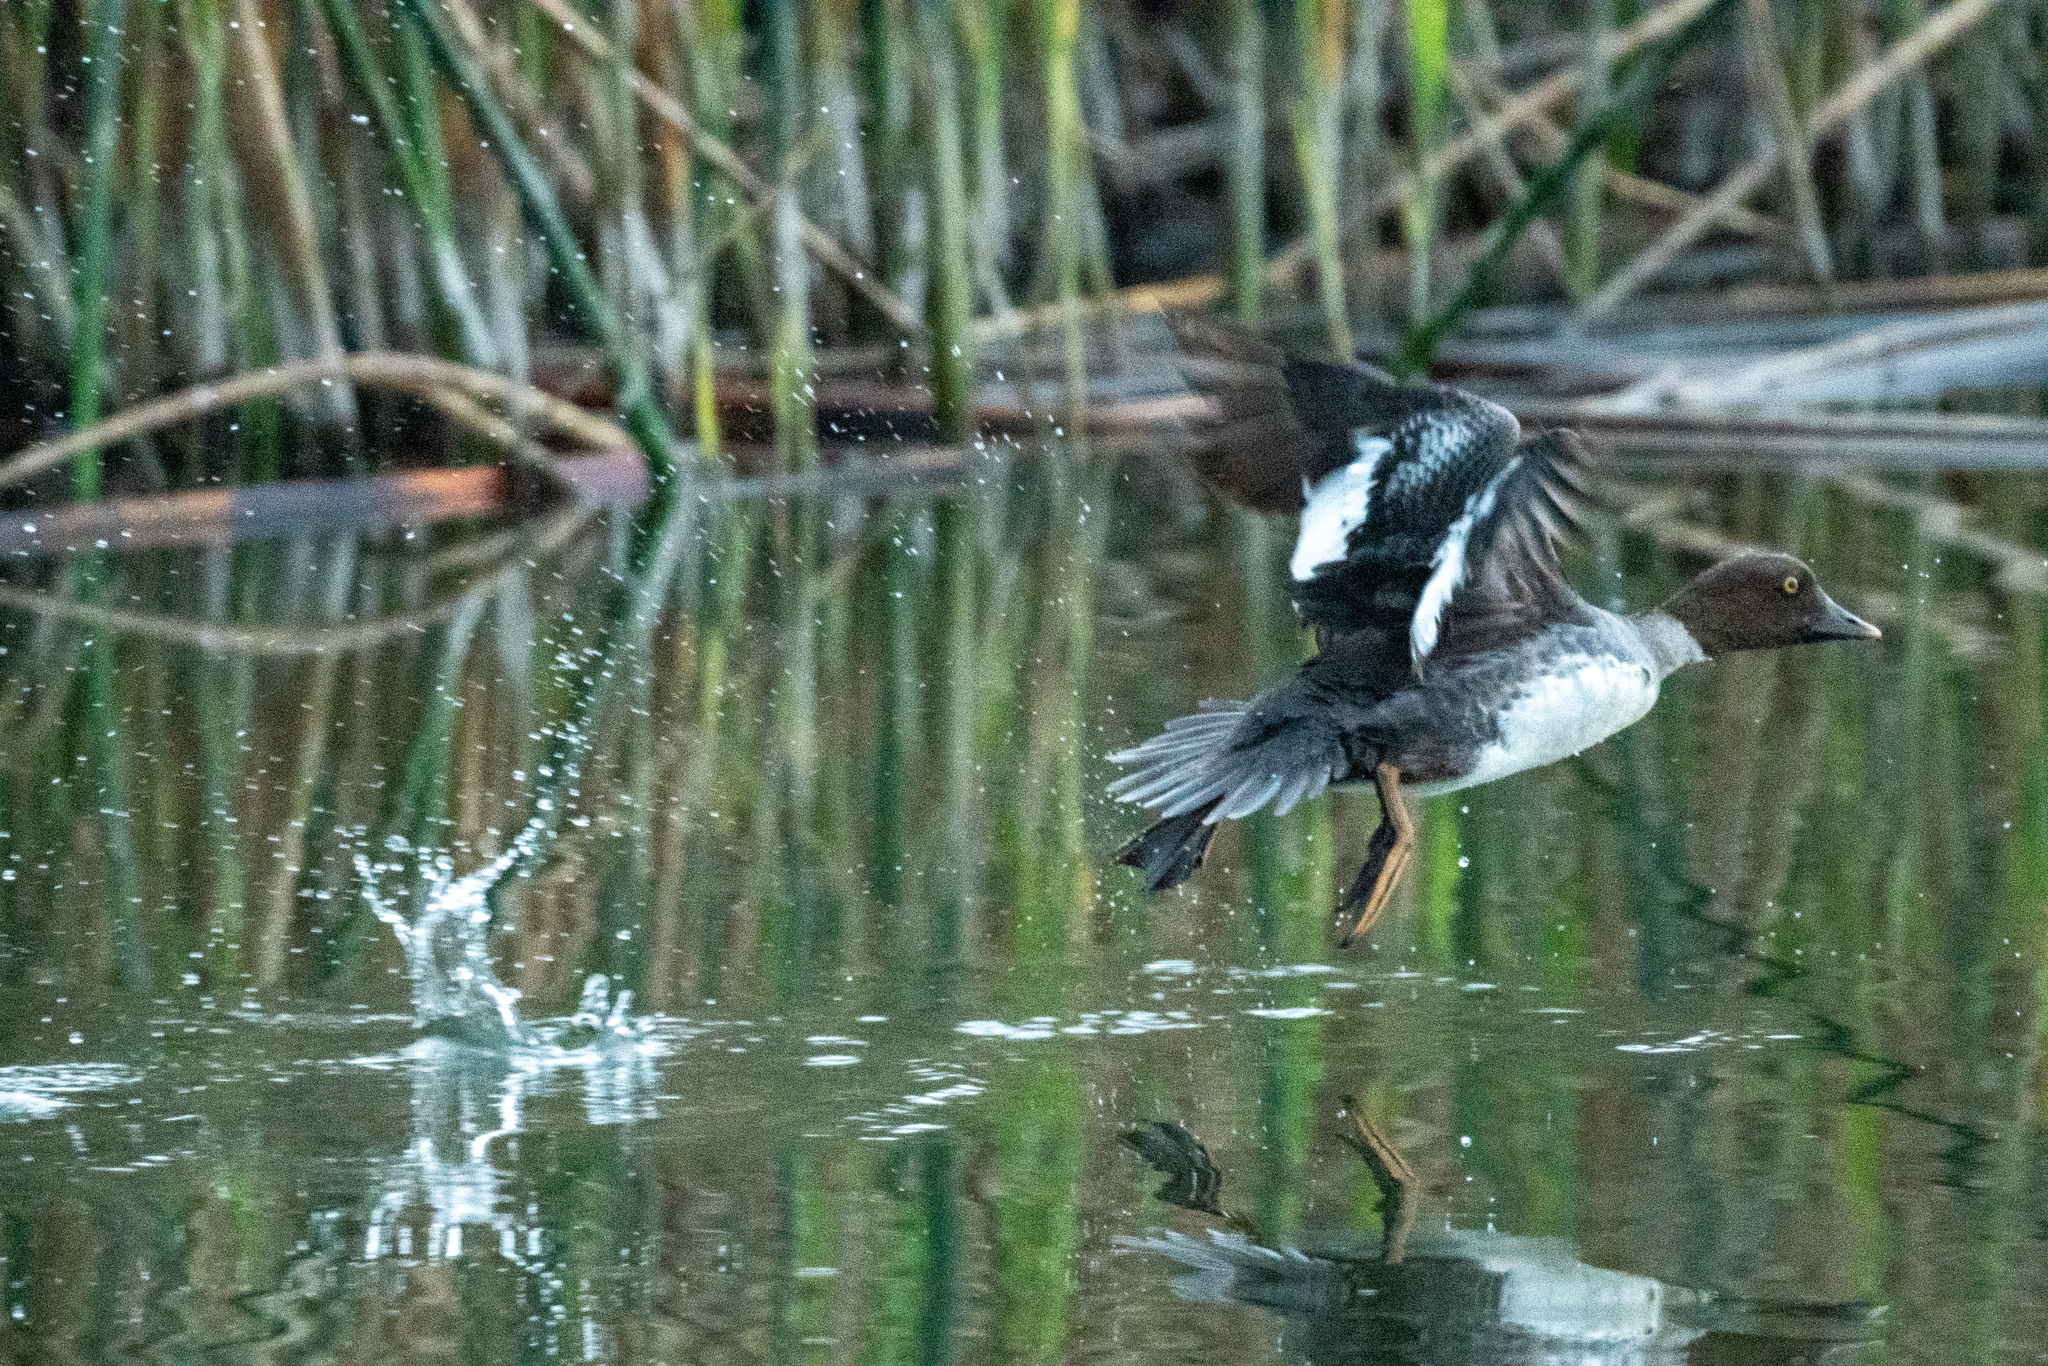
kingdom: Animalia
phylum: Chordata
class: Aves
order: Anseriformes
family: Anatidae
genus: Bucephala
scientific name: Bucephala clangula
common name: Common goldeneye
